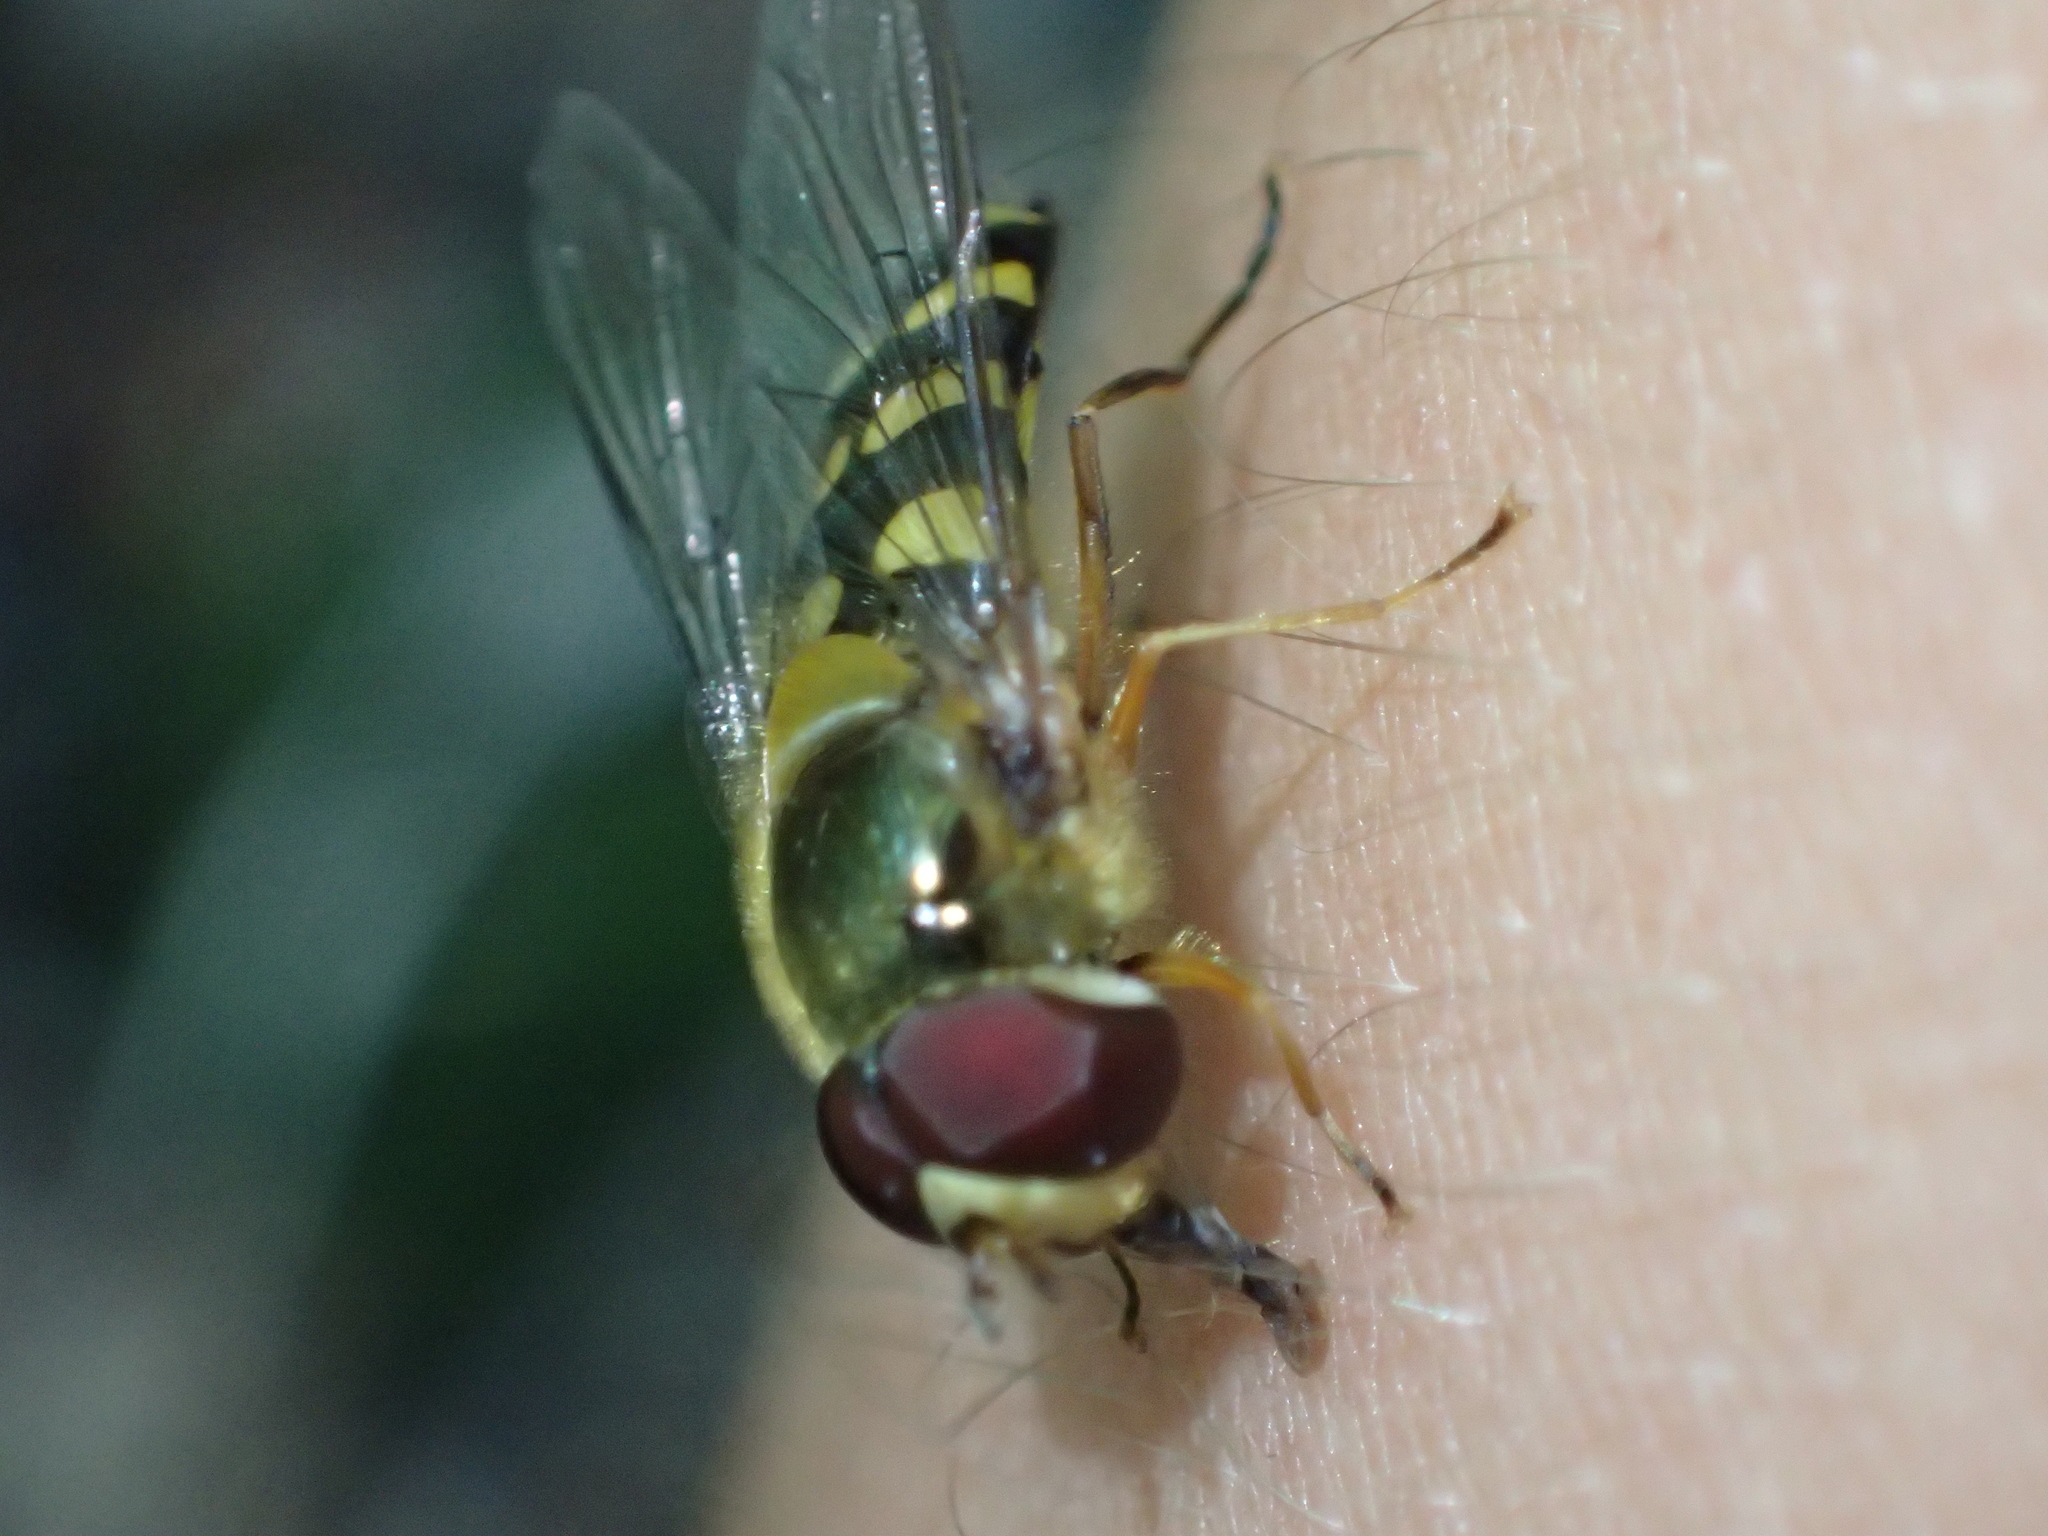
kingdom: Animalia
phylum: Arthropoda
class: Insecta
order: Diptera
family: Syrphidae
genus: Syrphus
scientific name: Syrphus
